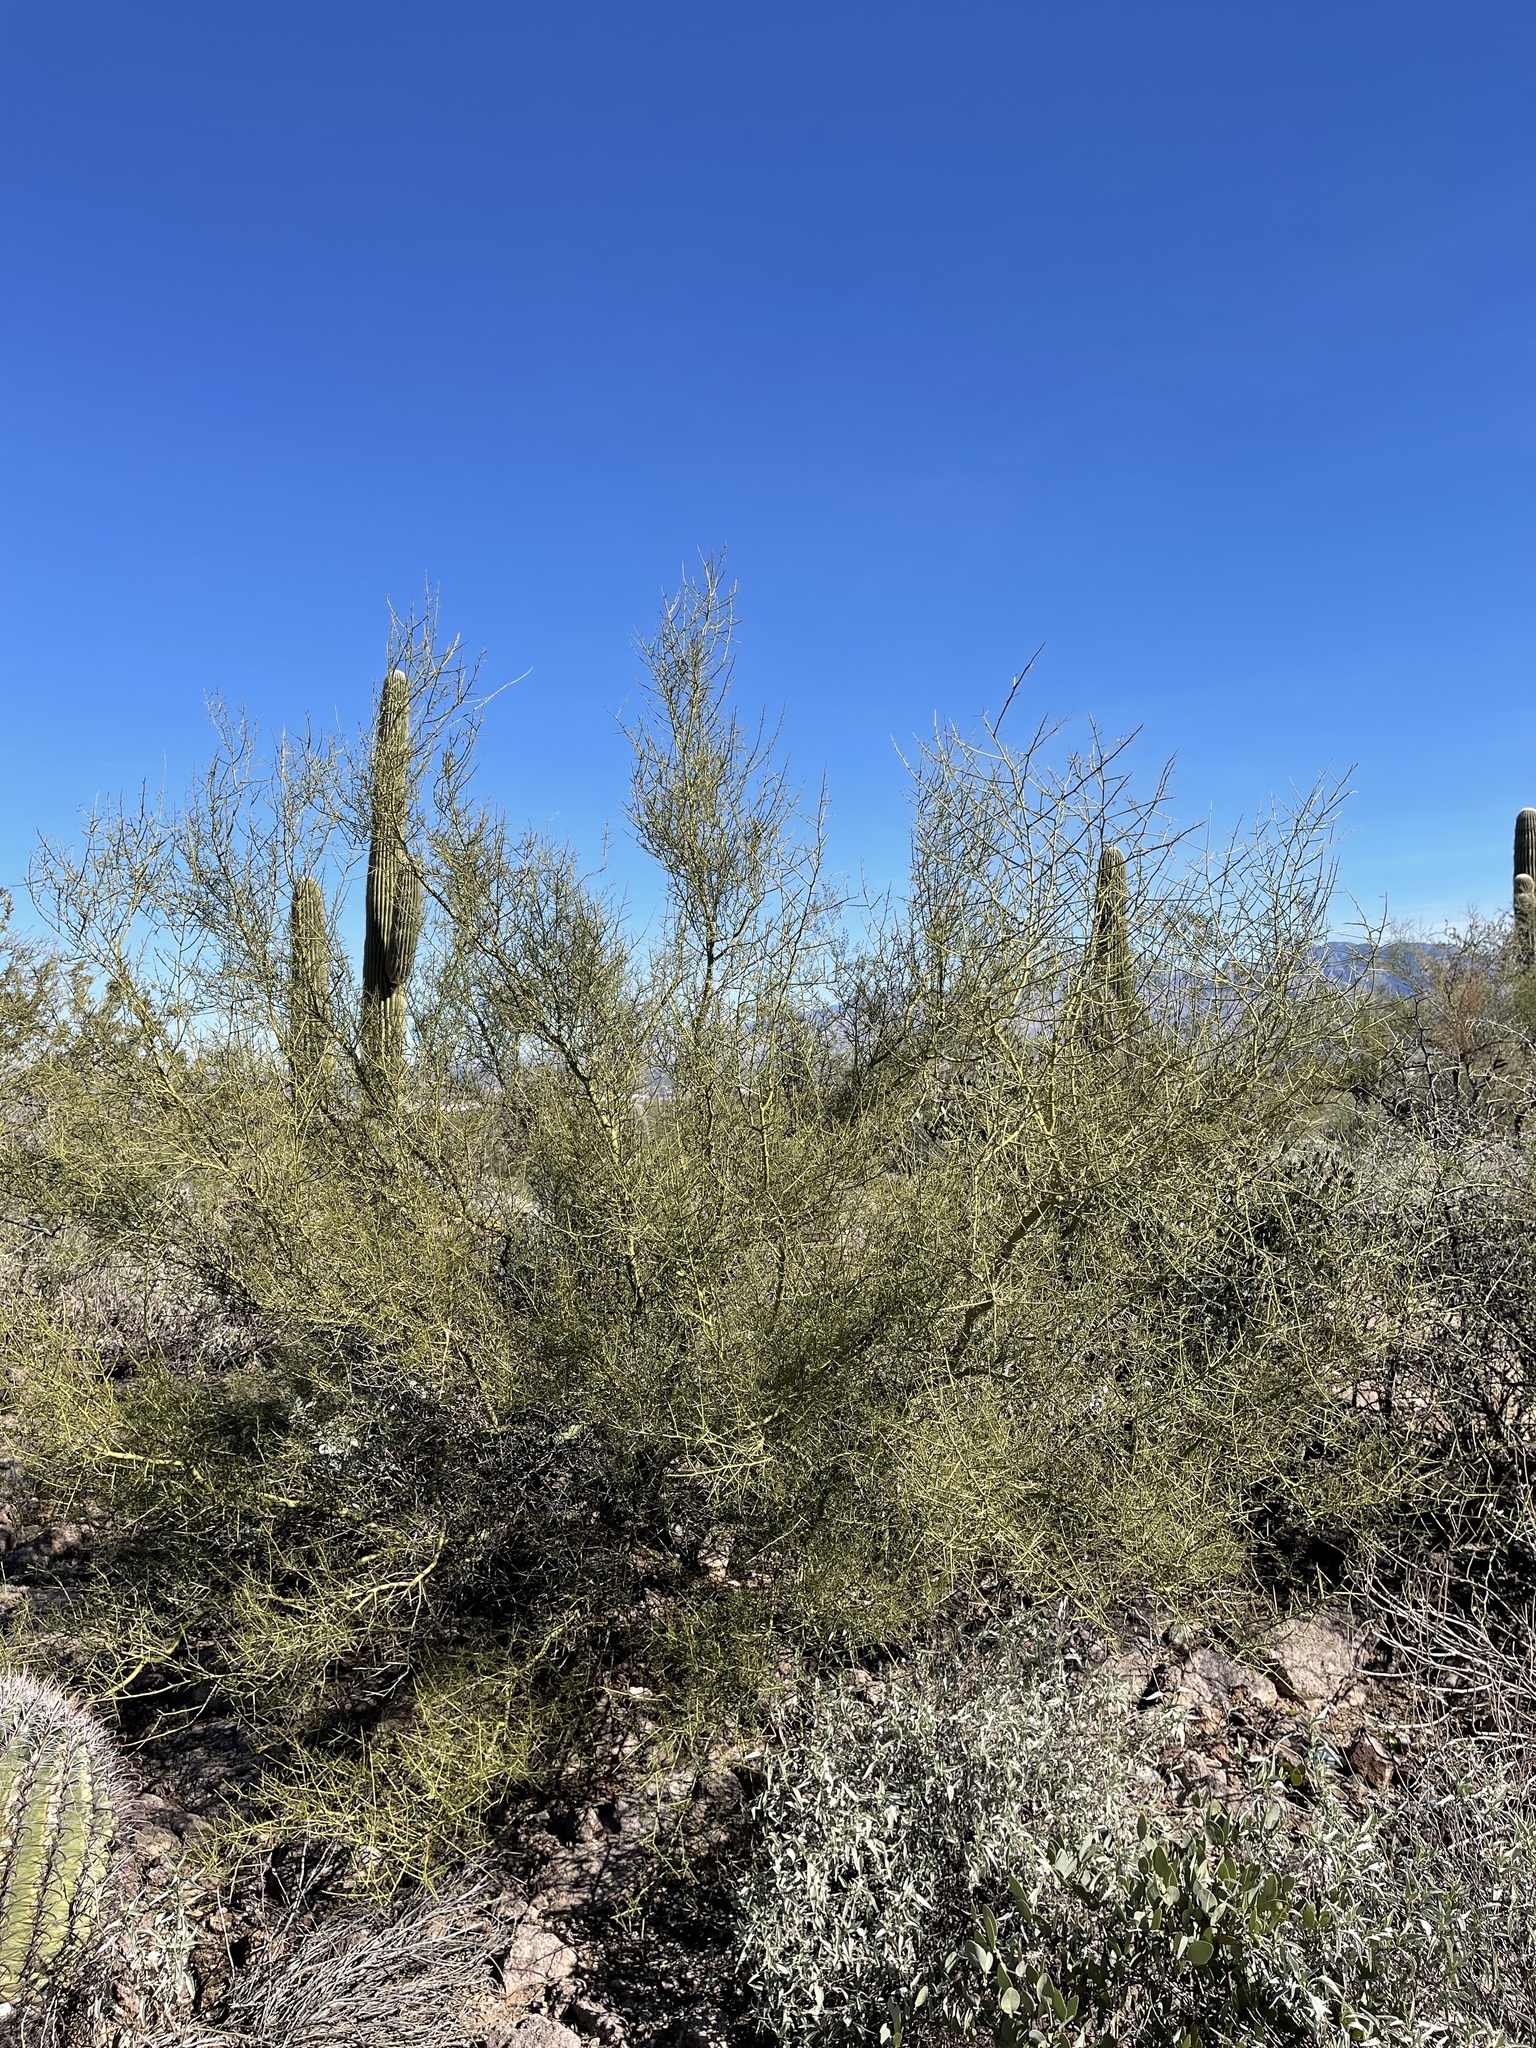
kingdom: Plantae
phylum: Tracheophyta
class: Magnoliopsida
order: Fabales
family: Fabaceae
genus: Parkinsonia
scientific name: Parkinsonia microphylla
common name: Yellow paloverde
